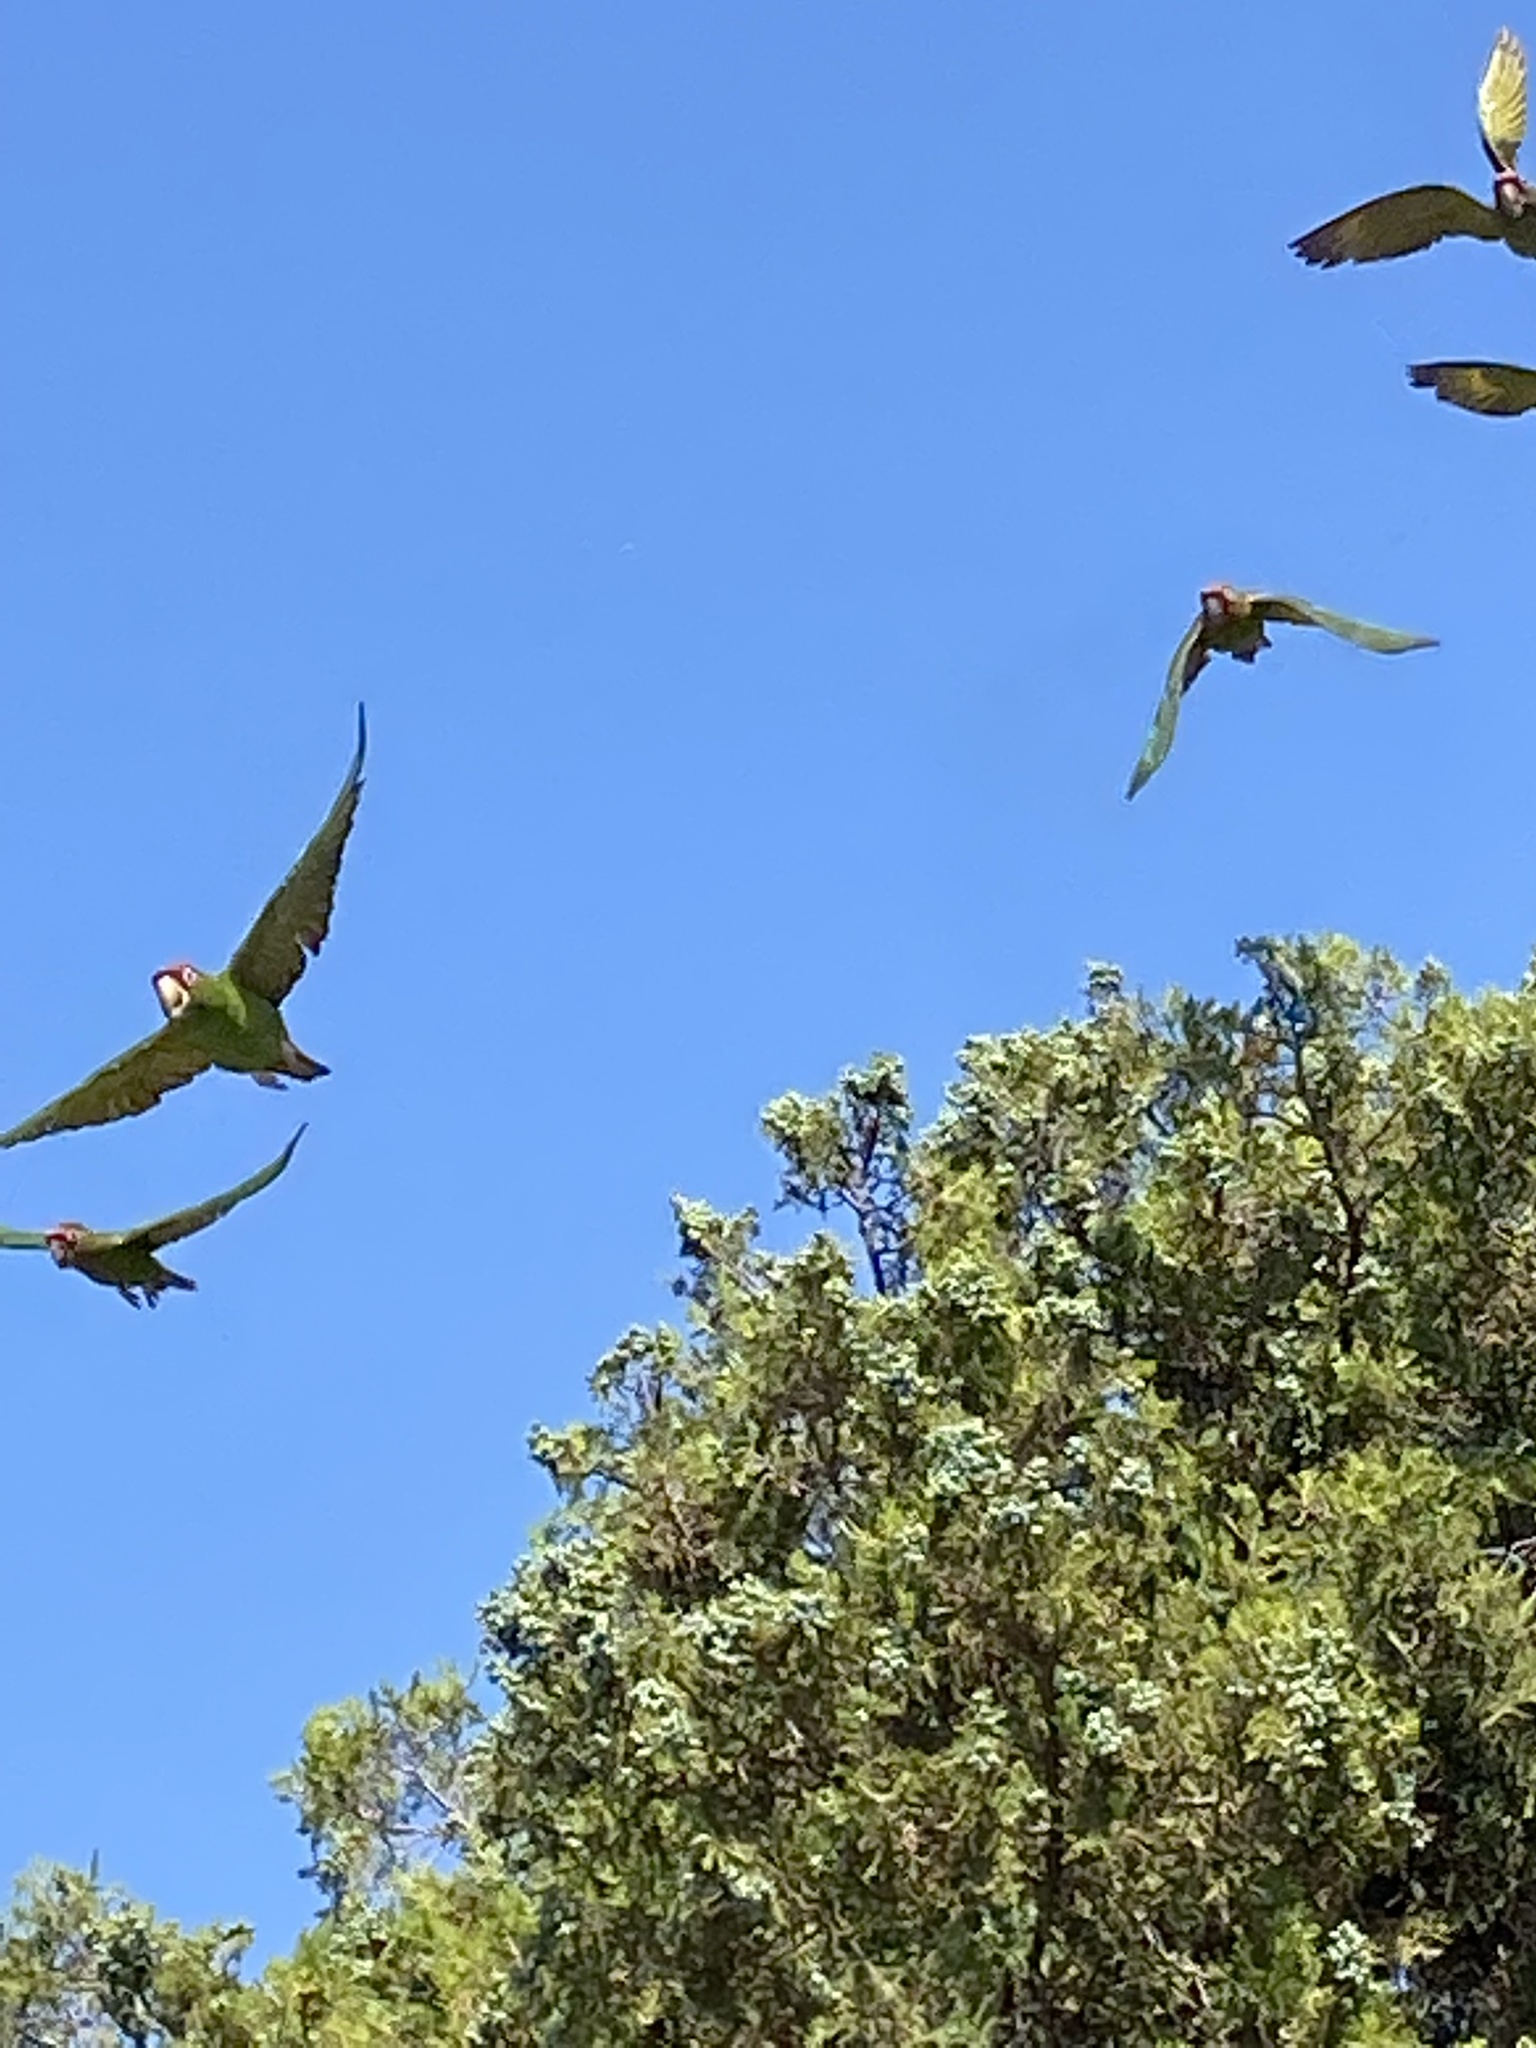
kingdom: Animalia
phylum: Chordata
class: Aves
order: Psittaciformes
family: Psittacidae
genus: Aratinga
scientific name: Aratinga mitrata
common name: Mitred parakeet
